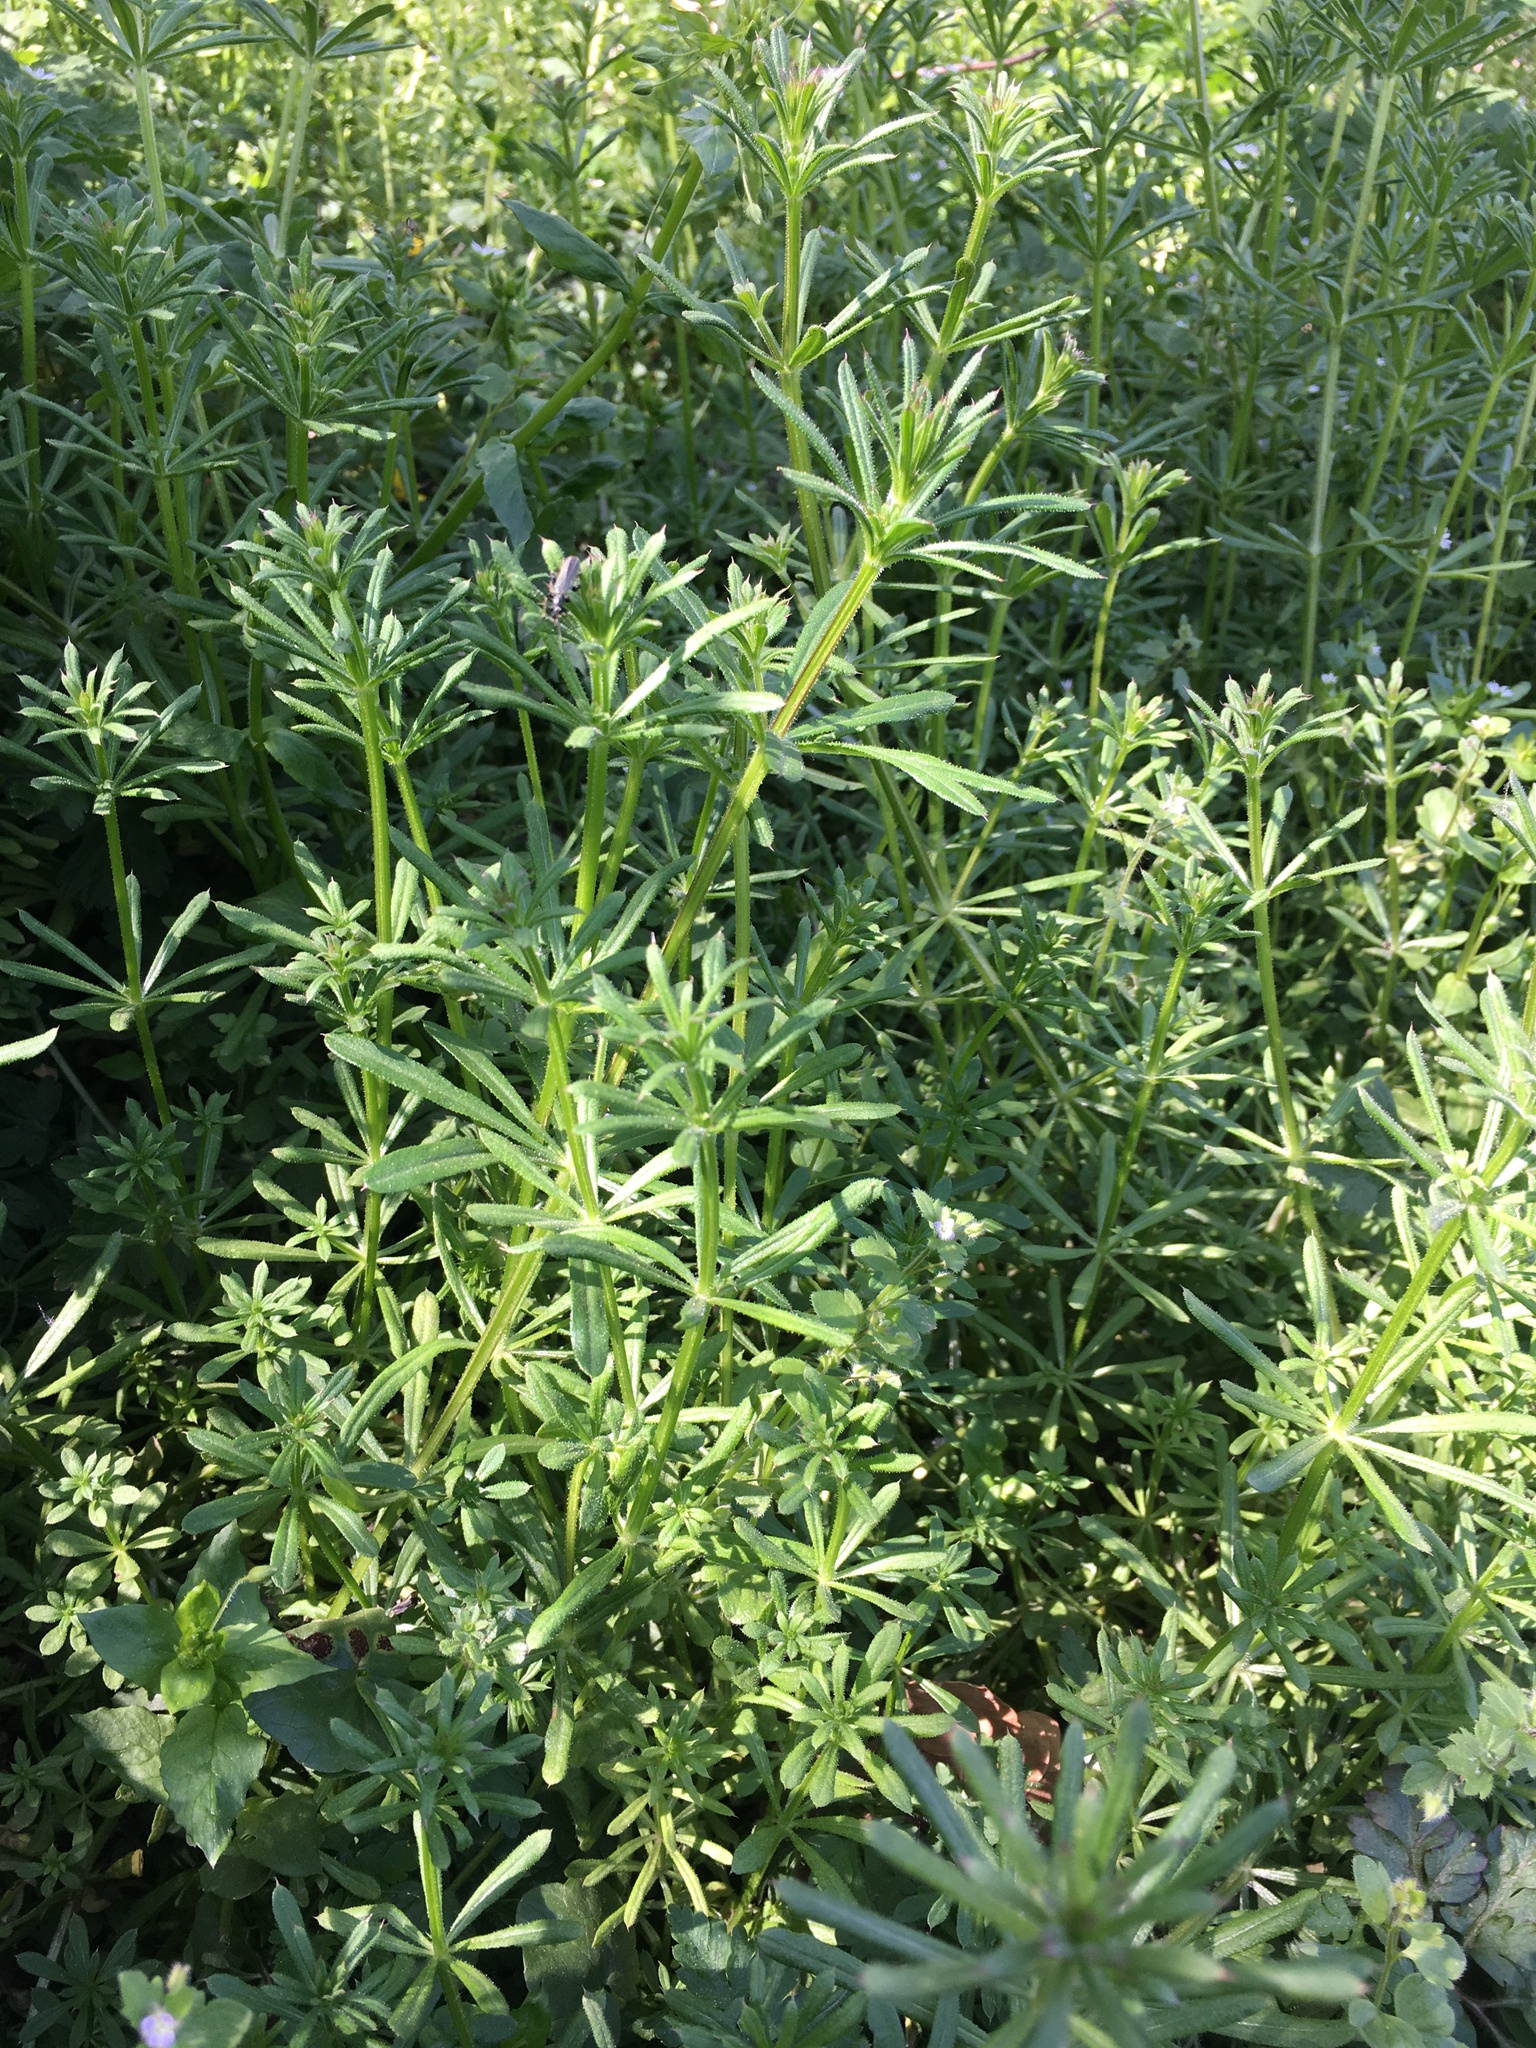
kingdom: Plantae
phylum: Tracheophyta
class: Magnoliopsida
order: Gentianales
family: Rubiaceae
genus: Galium
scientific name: Galium aparine
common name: Cleavers
